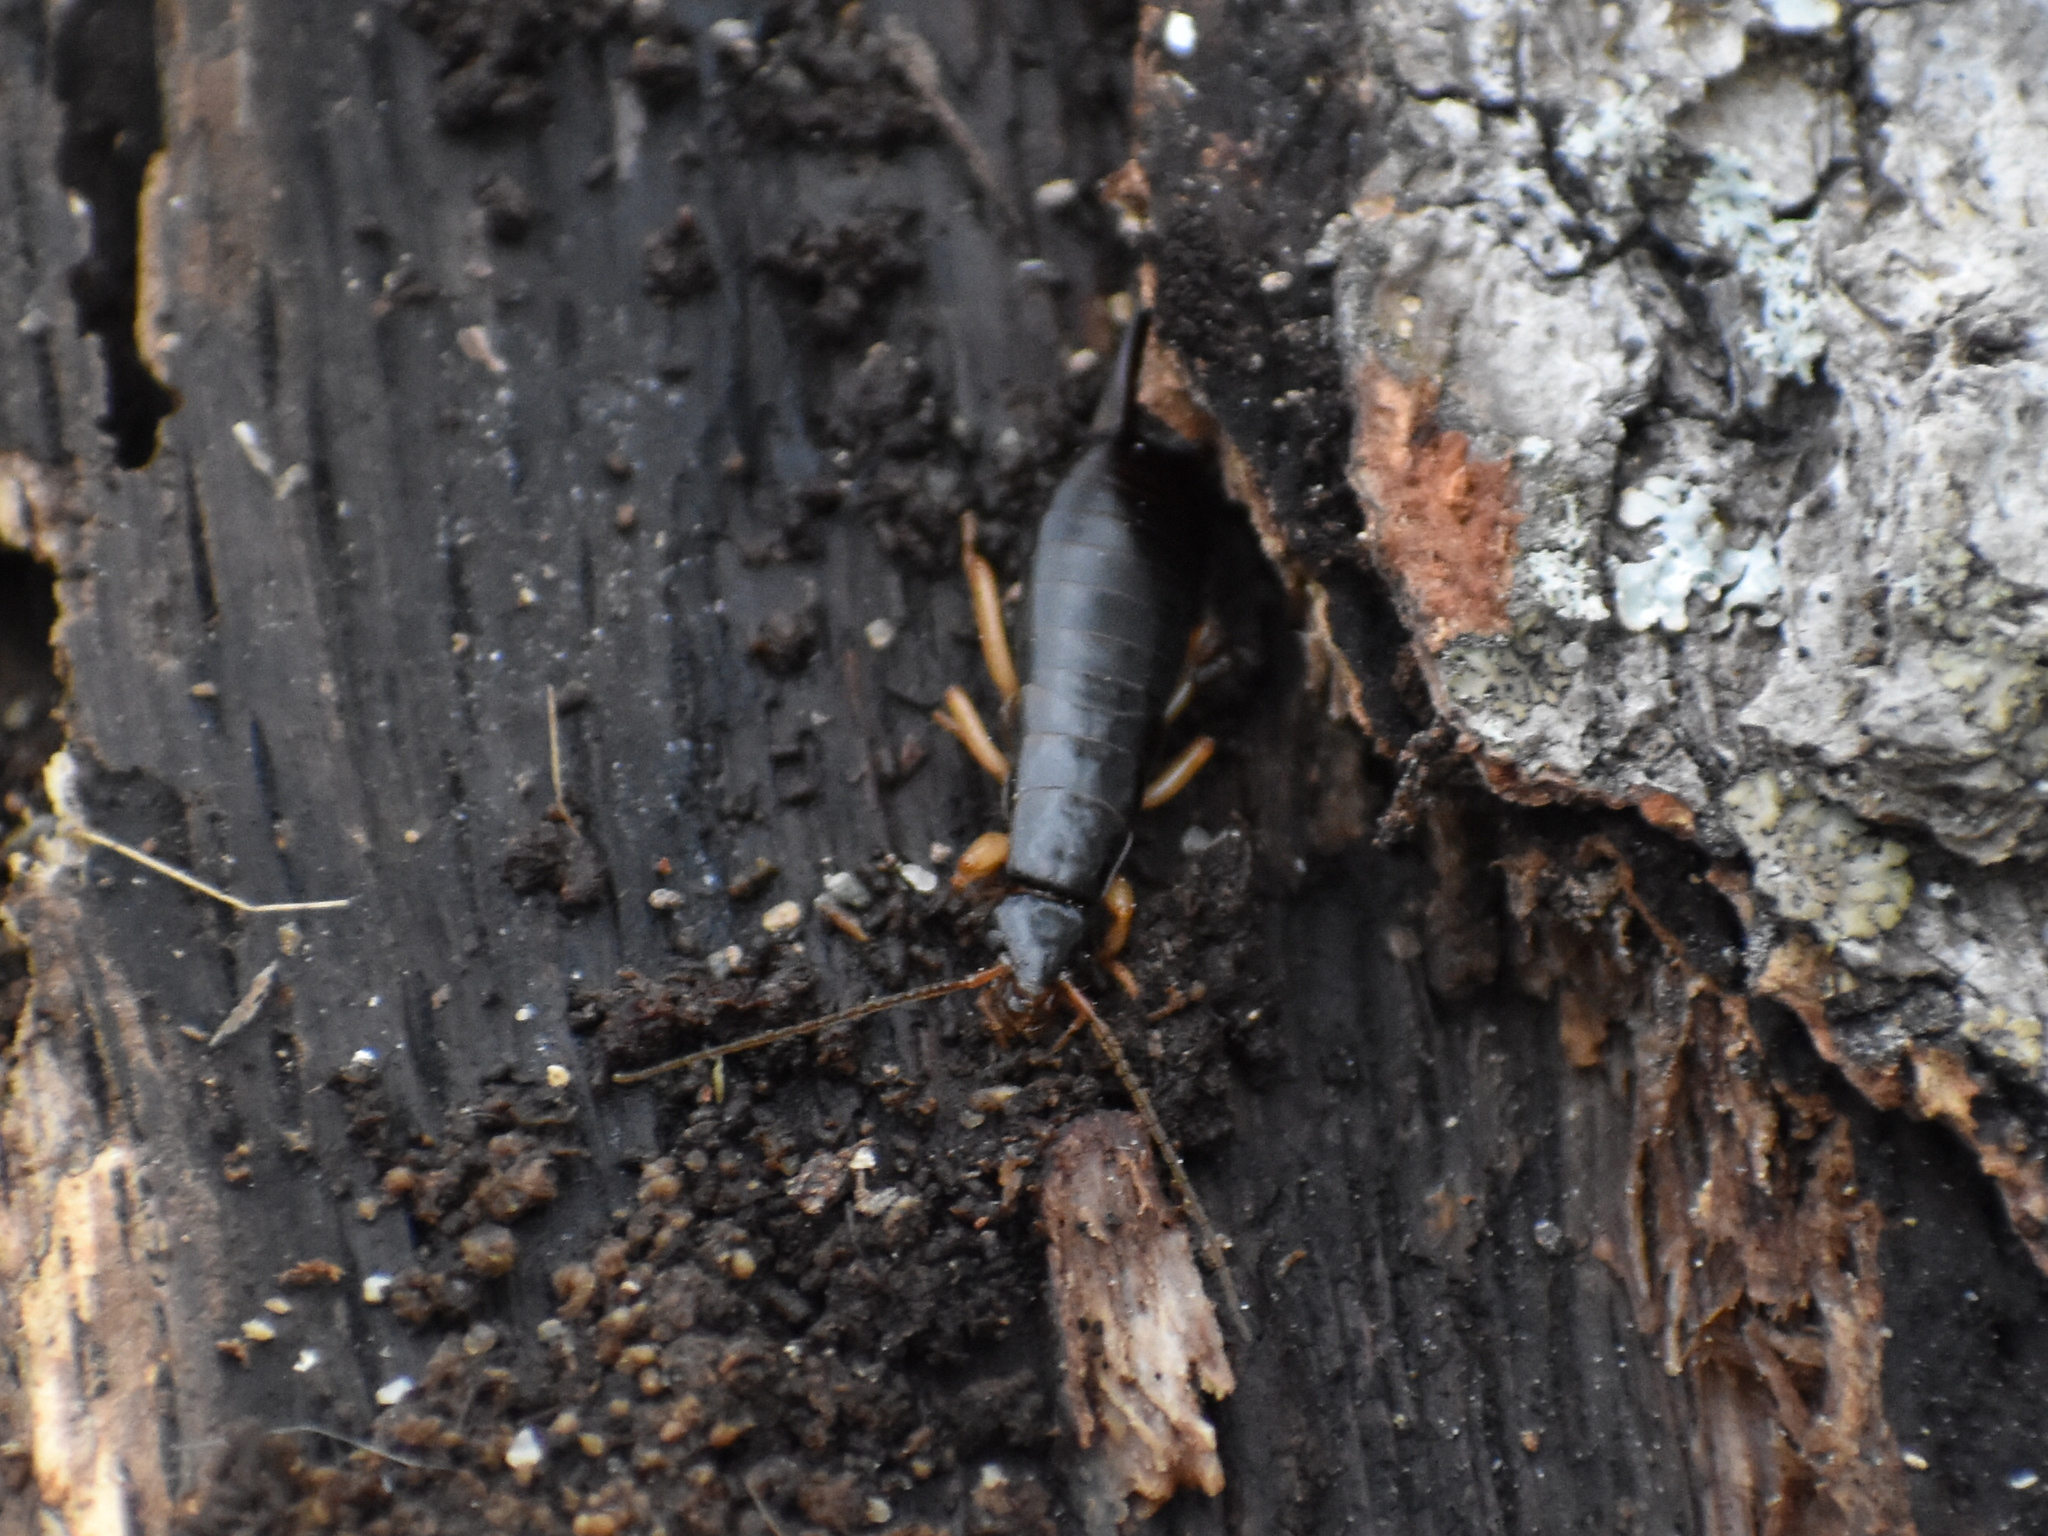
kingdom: Animalia
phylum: Arthropoda
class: Insecta
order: Dermaptera
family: Anisolabididae
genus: Anisolabis
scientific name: Anisolabis maritima
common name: Maritime earwig
